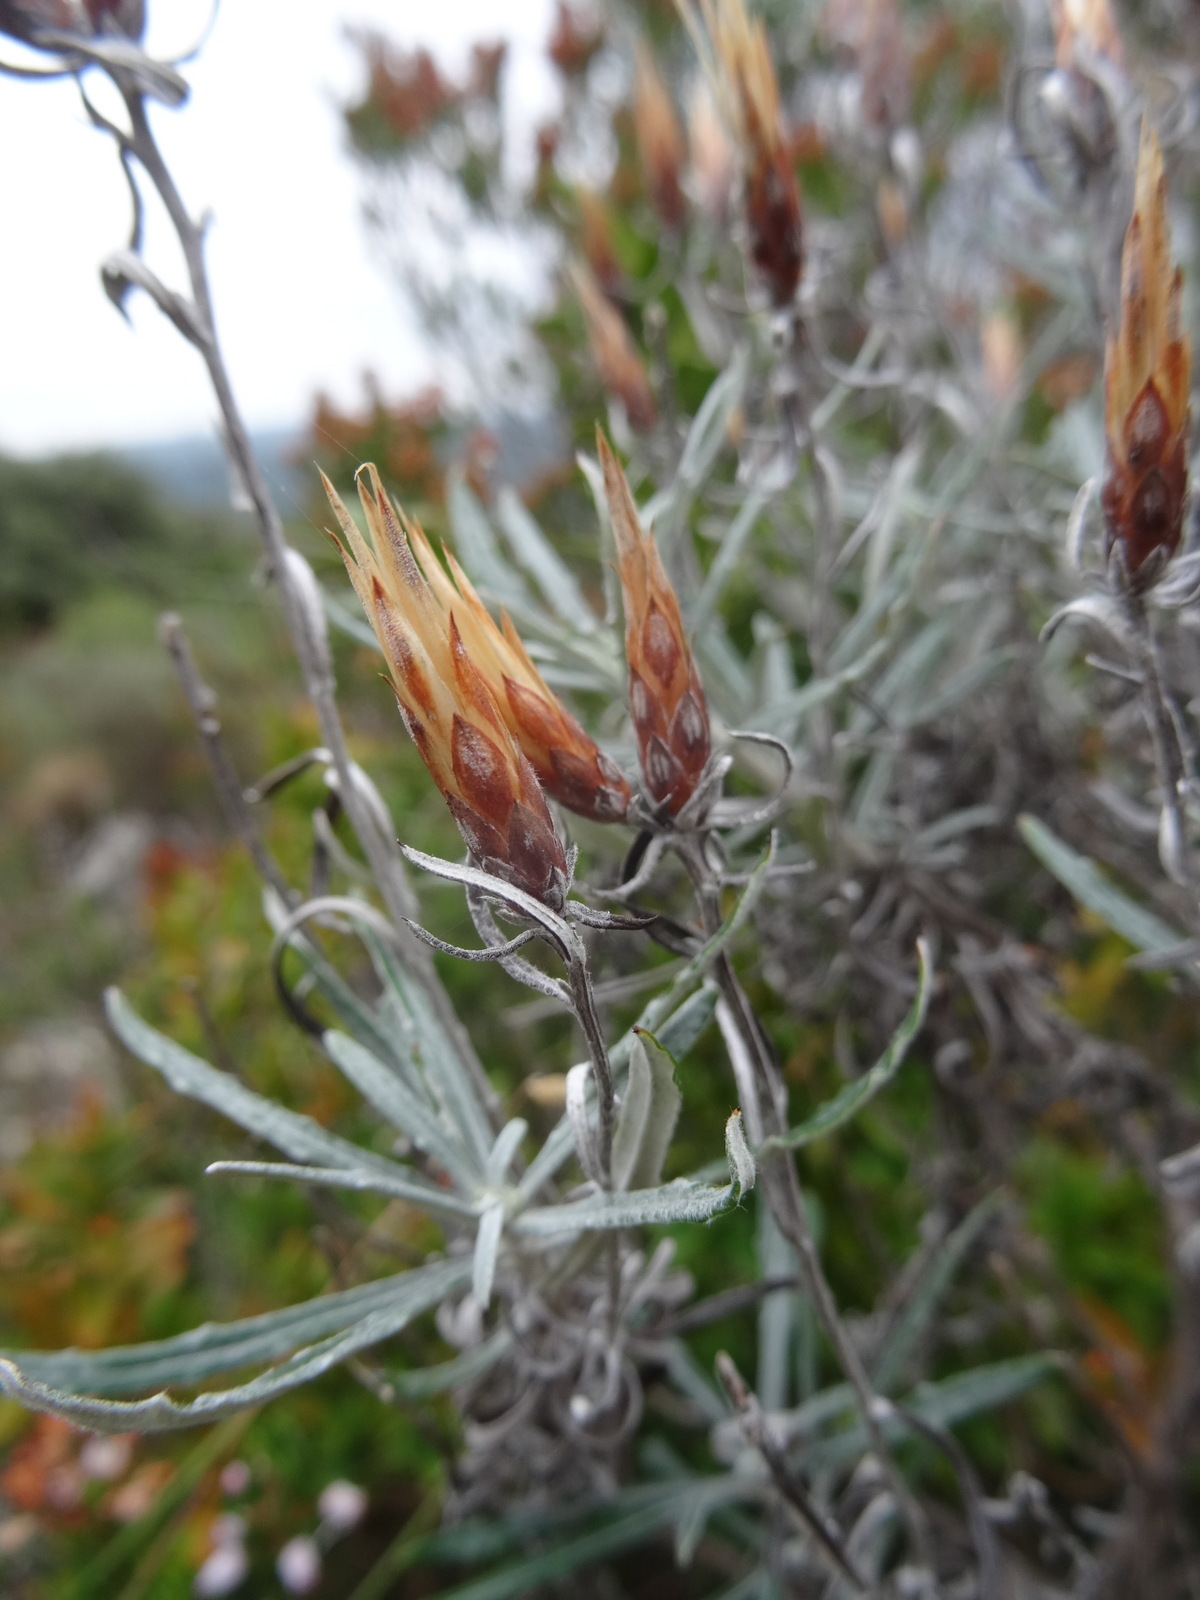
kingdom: Plantae
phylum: Tracheophyta
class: Magnoliopsida
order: Asterales
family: Asteraceae
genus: Staehelina
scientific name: Staehelina dubia
